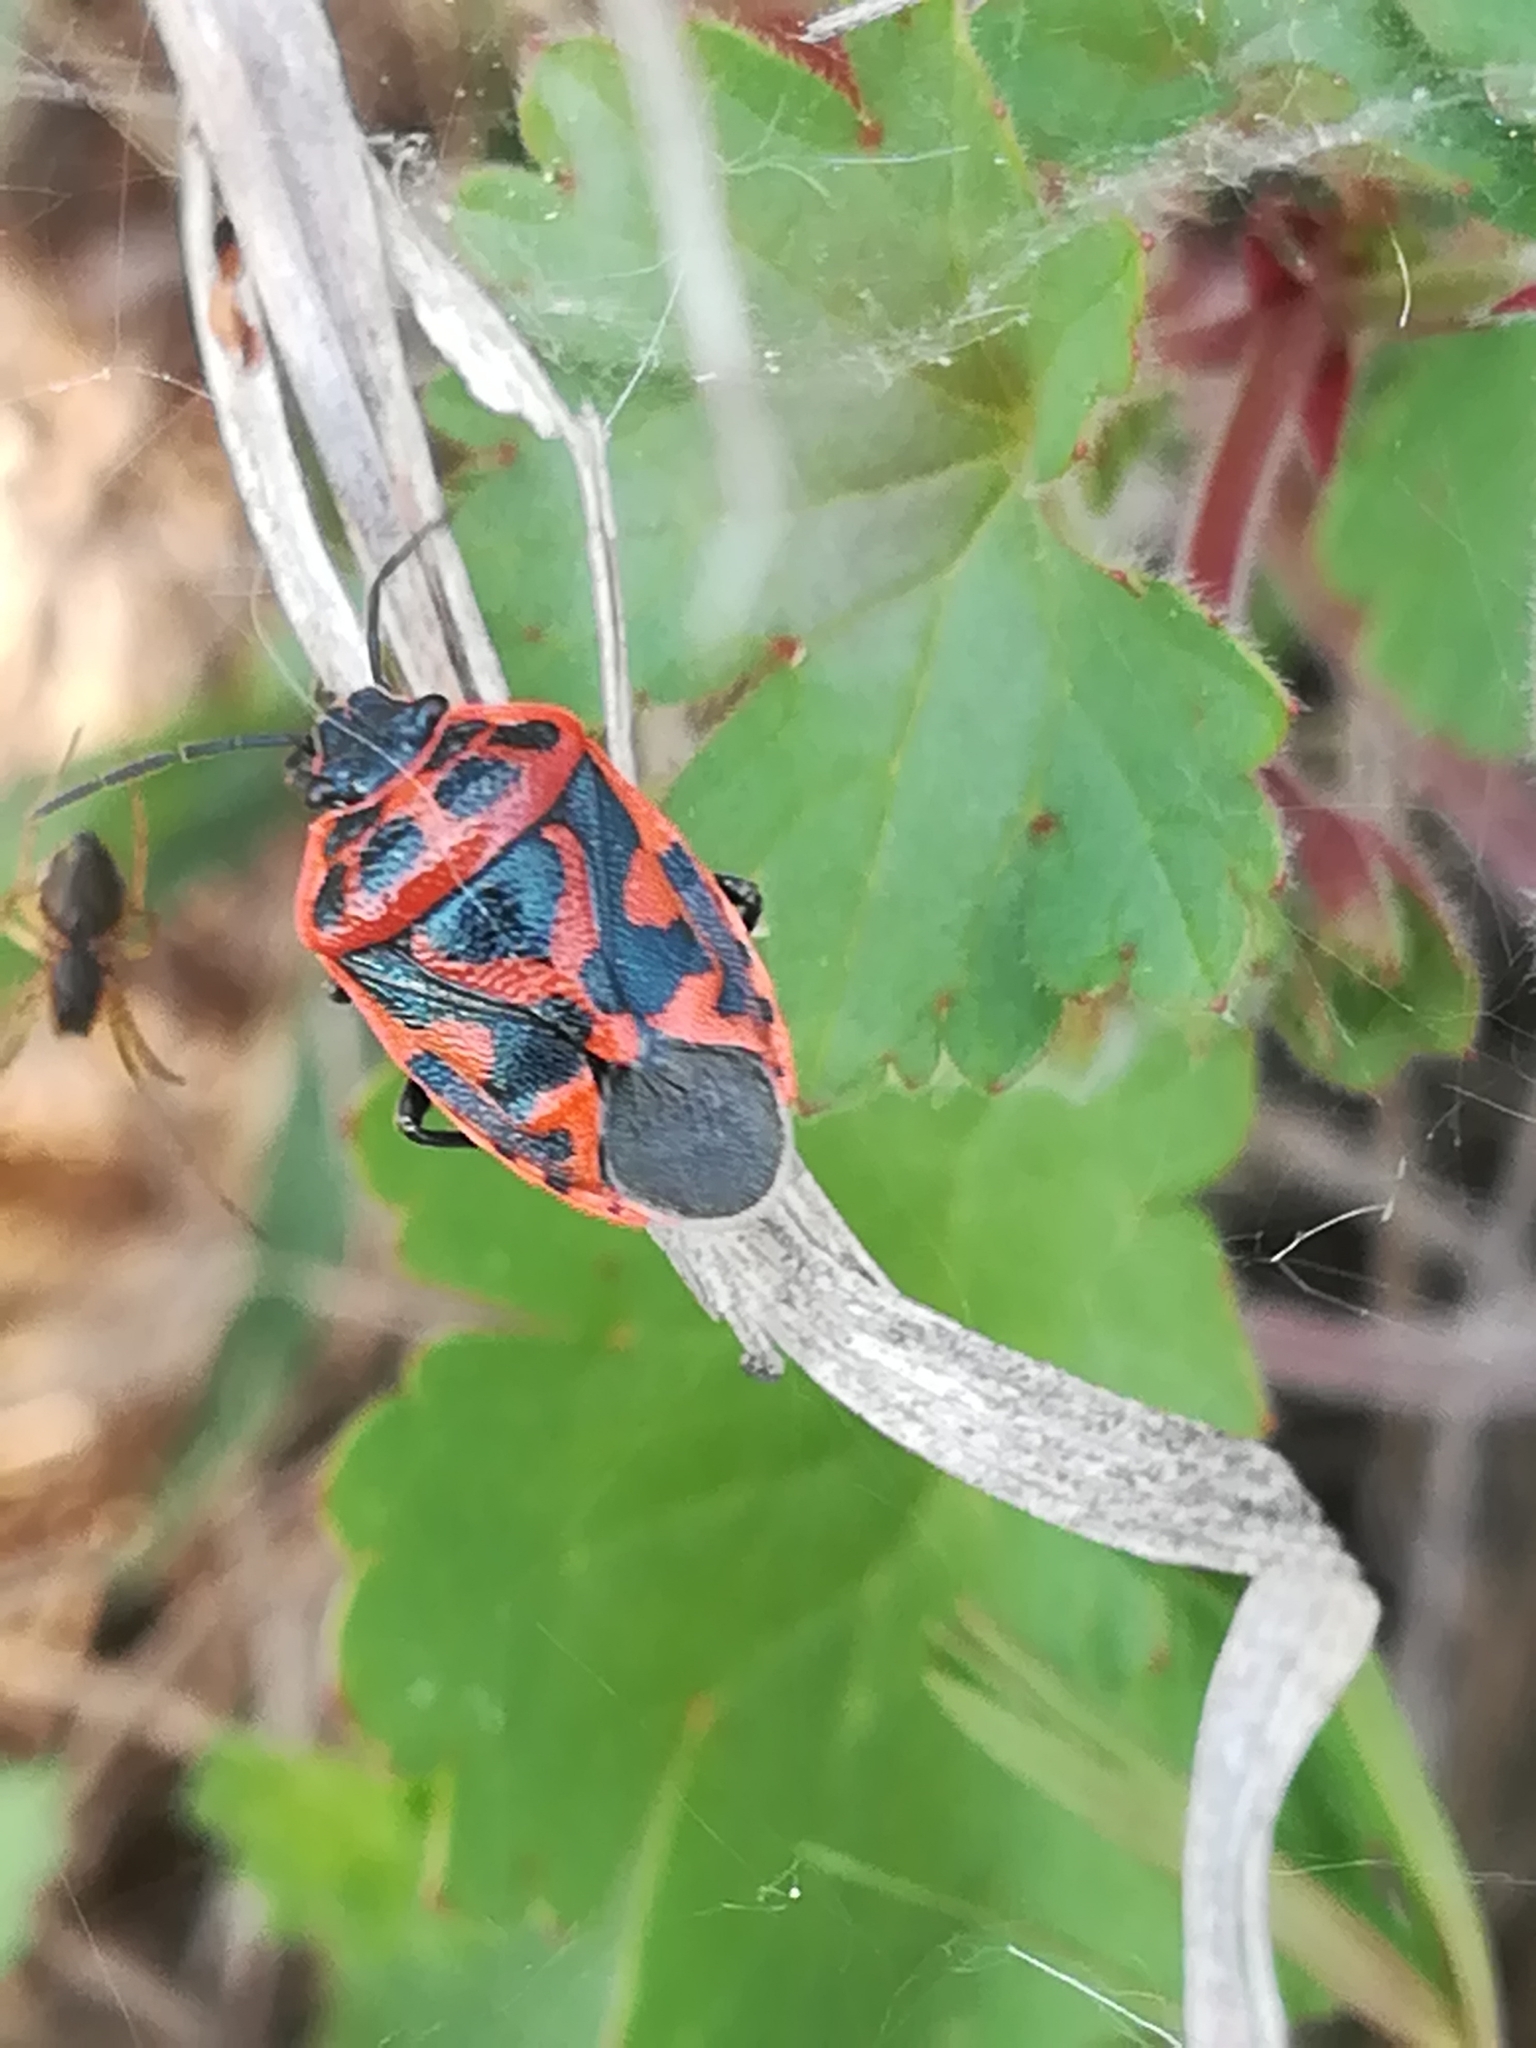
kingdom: Animalia
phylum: Arthropoda
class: Insecta
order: Hemiptera
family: Pentatomidae
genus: Eurydema
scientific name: Eurydema ornata
